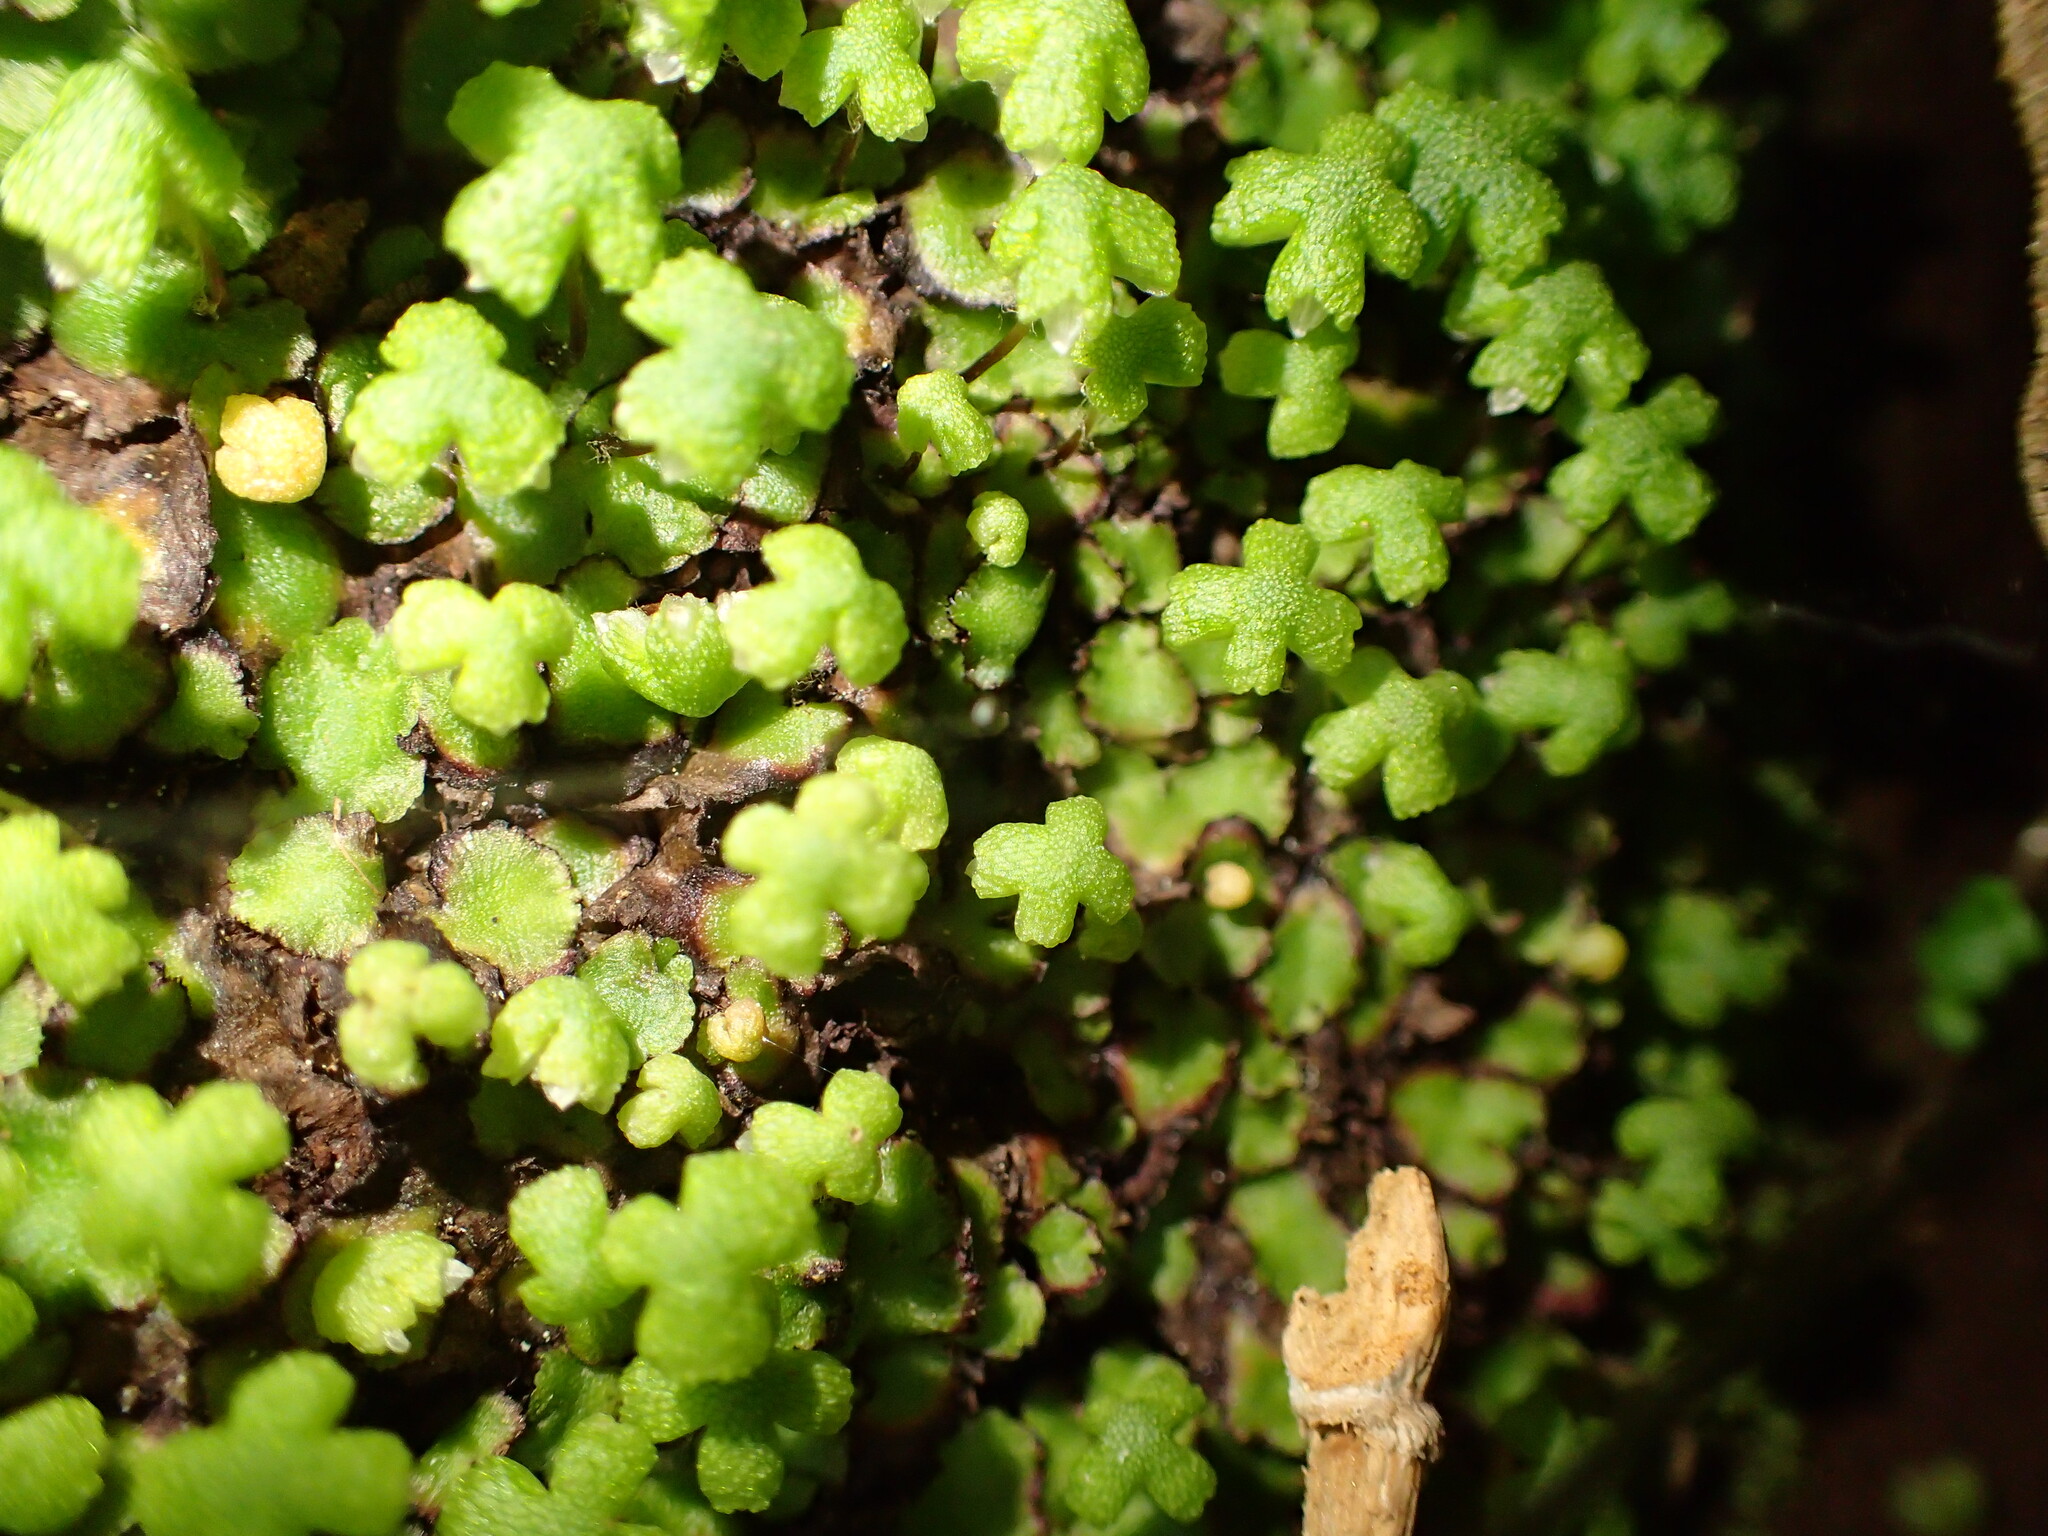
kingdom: Plantae
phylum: Marchantiophyta
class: Marchantiopsida
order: Marchantiales
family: Aytoniaceae
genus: Asterella
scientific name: Asterella californica
